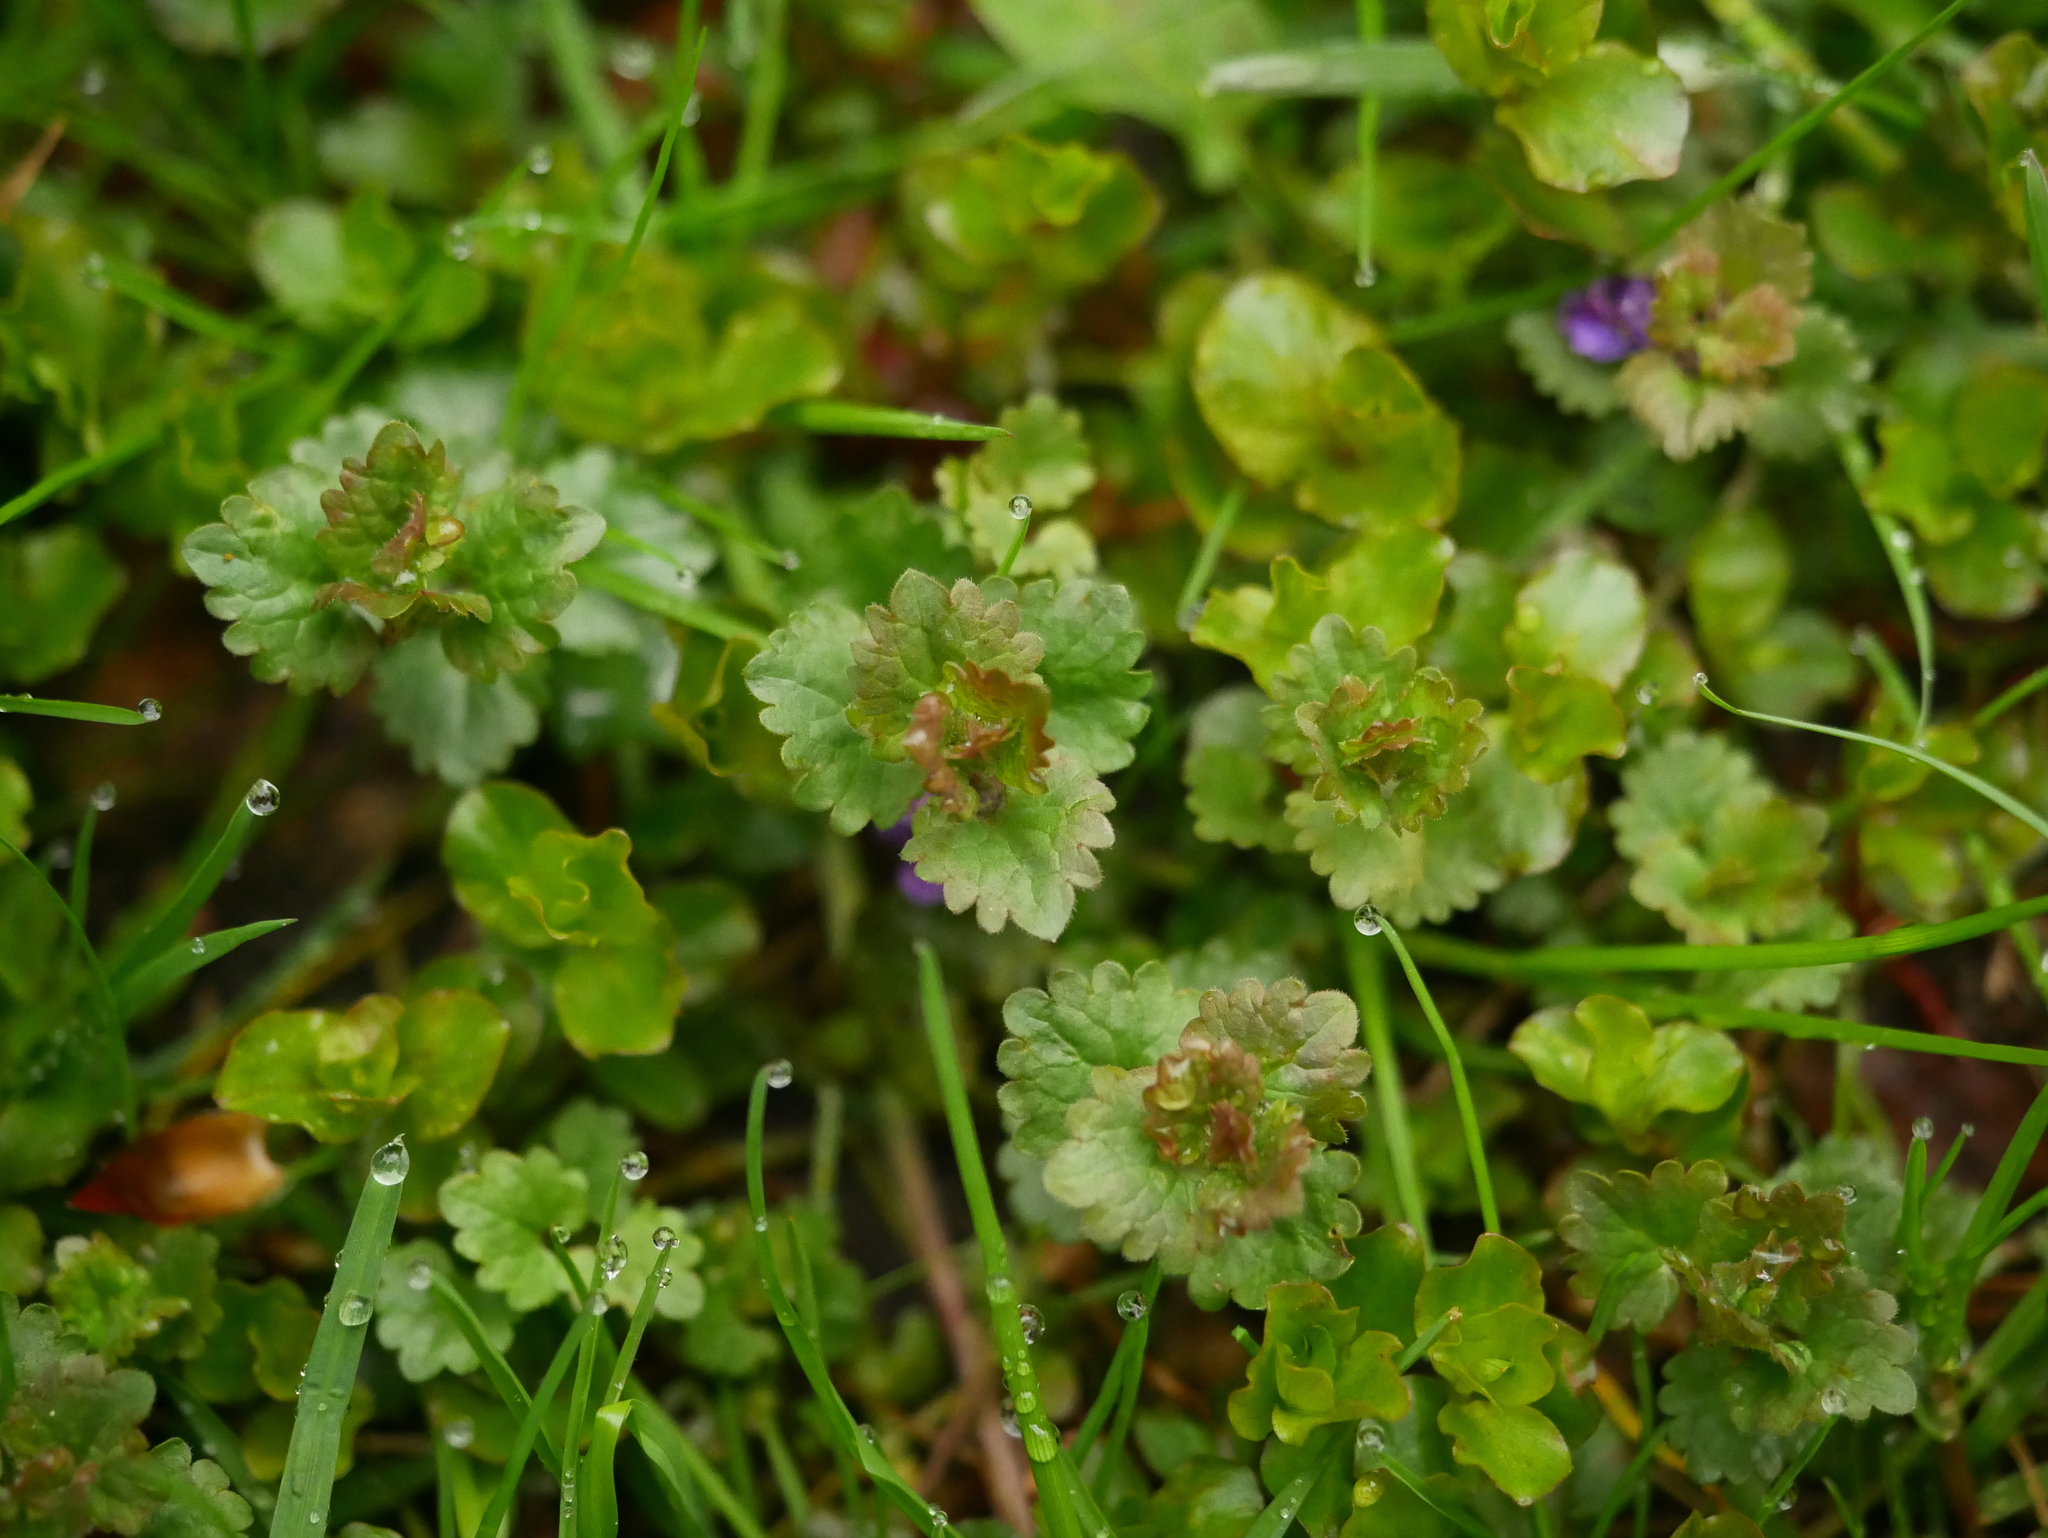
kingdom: Plantae
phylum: Tracheophyta
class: Magnoliopsida
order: Lamiales
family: Lamiaceae
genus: Glechoma
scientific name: Glechoma hederacea
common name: Ground ivy
